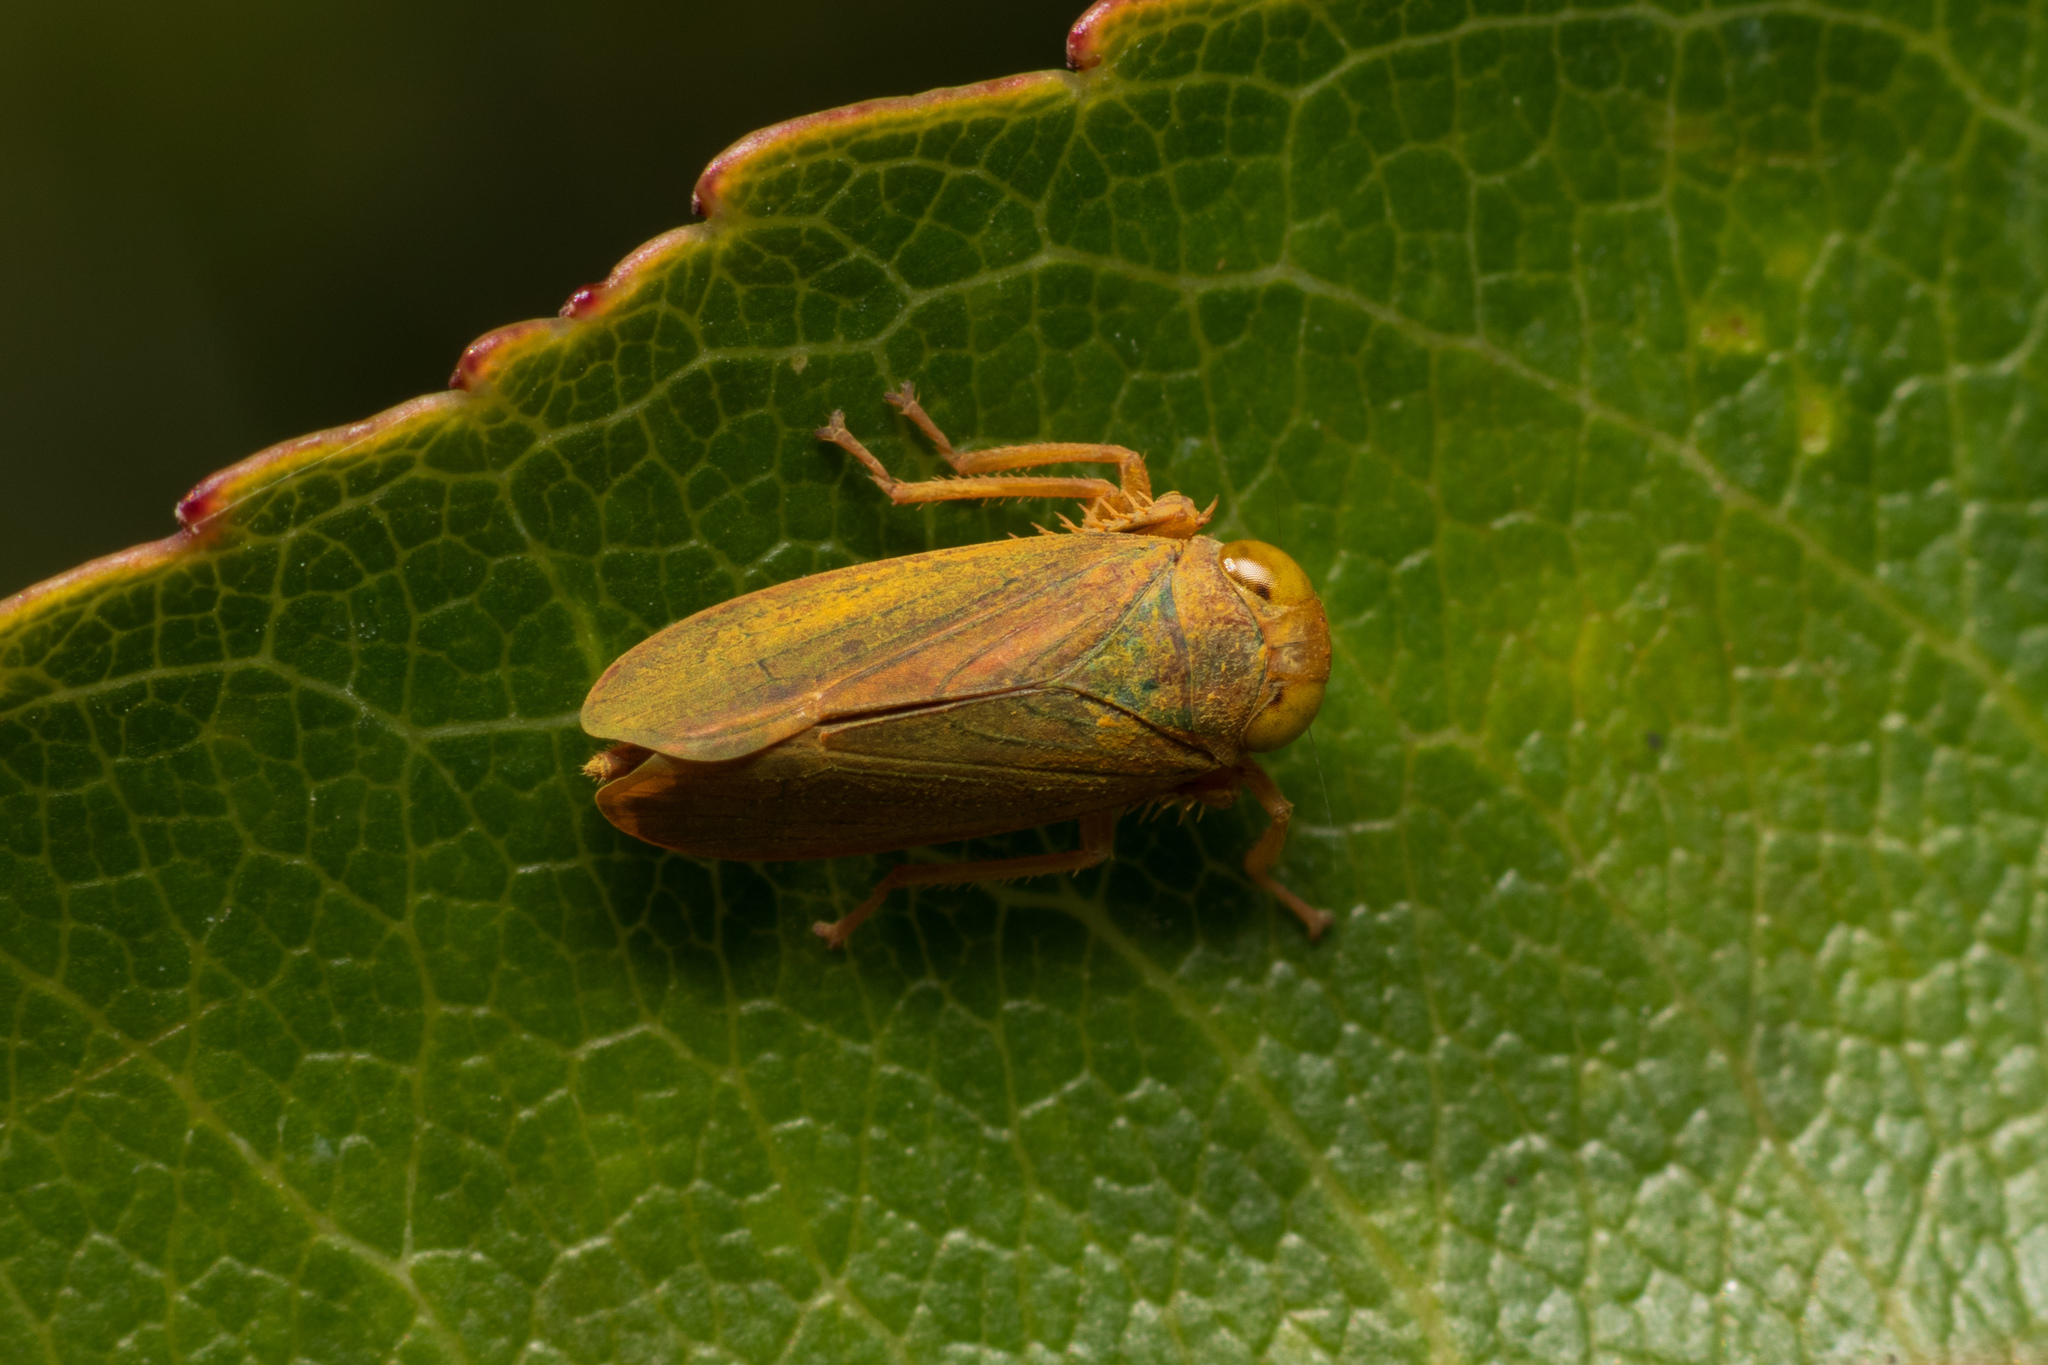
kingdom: Animalia
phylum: Arthropoda
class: Insecta
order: Hemiptera
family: Cicadellidae
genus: Jikradia
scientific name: Jikradia olitoria
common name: Coppery leafhopper
